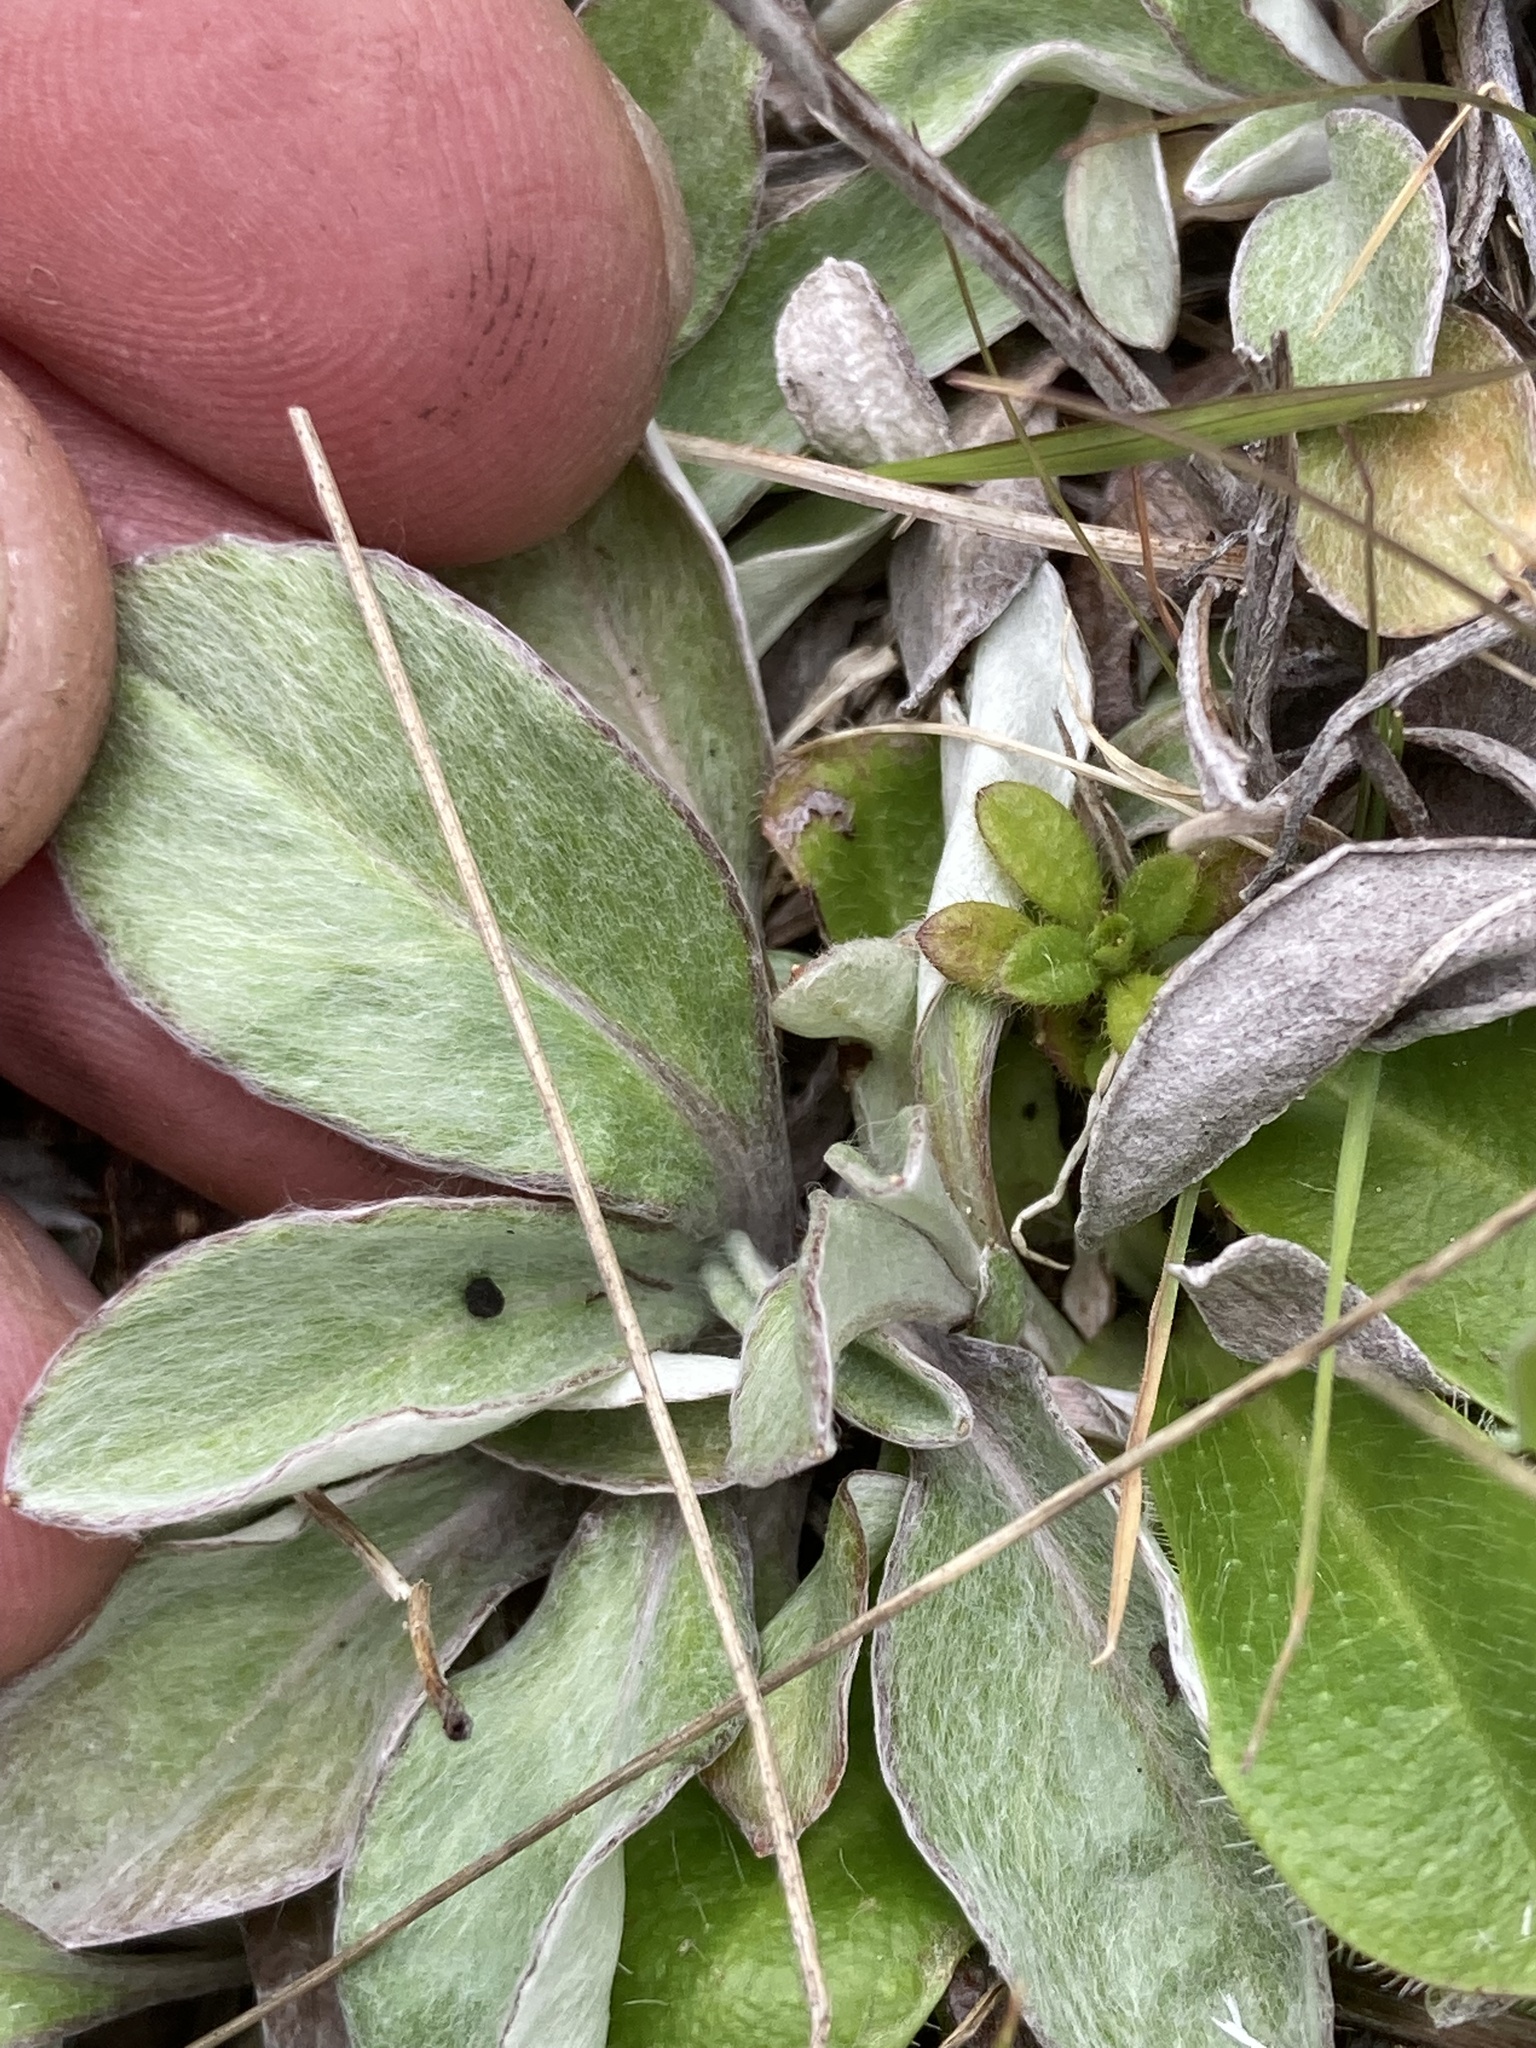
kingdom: Plantae
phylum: Tracheophyta
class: Magnoliopsida
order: Asterales
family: Asteraceae
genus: Euchiton
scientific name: Euchiton audax
